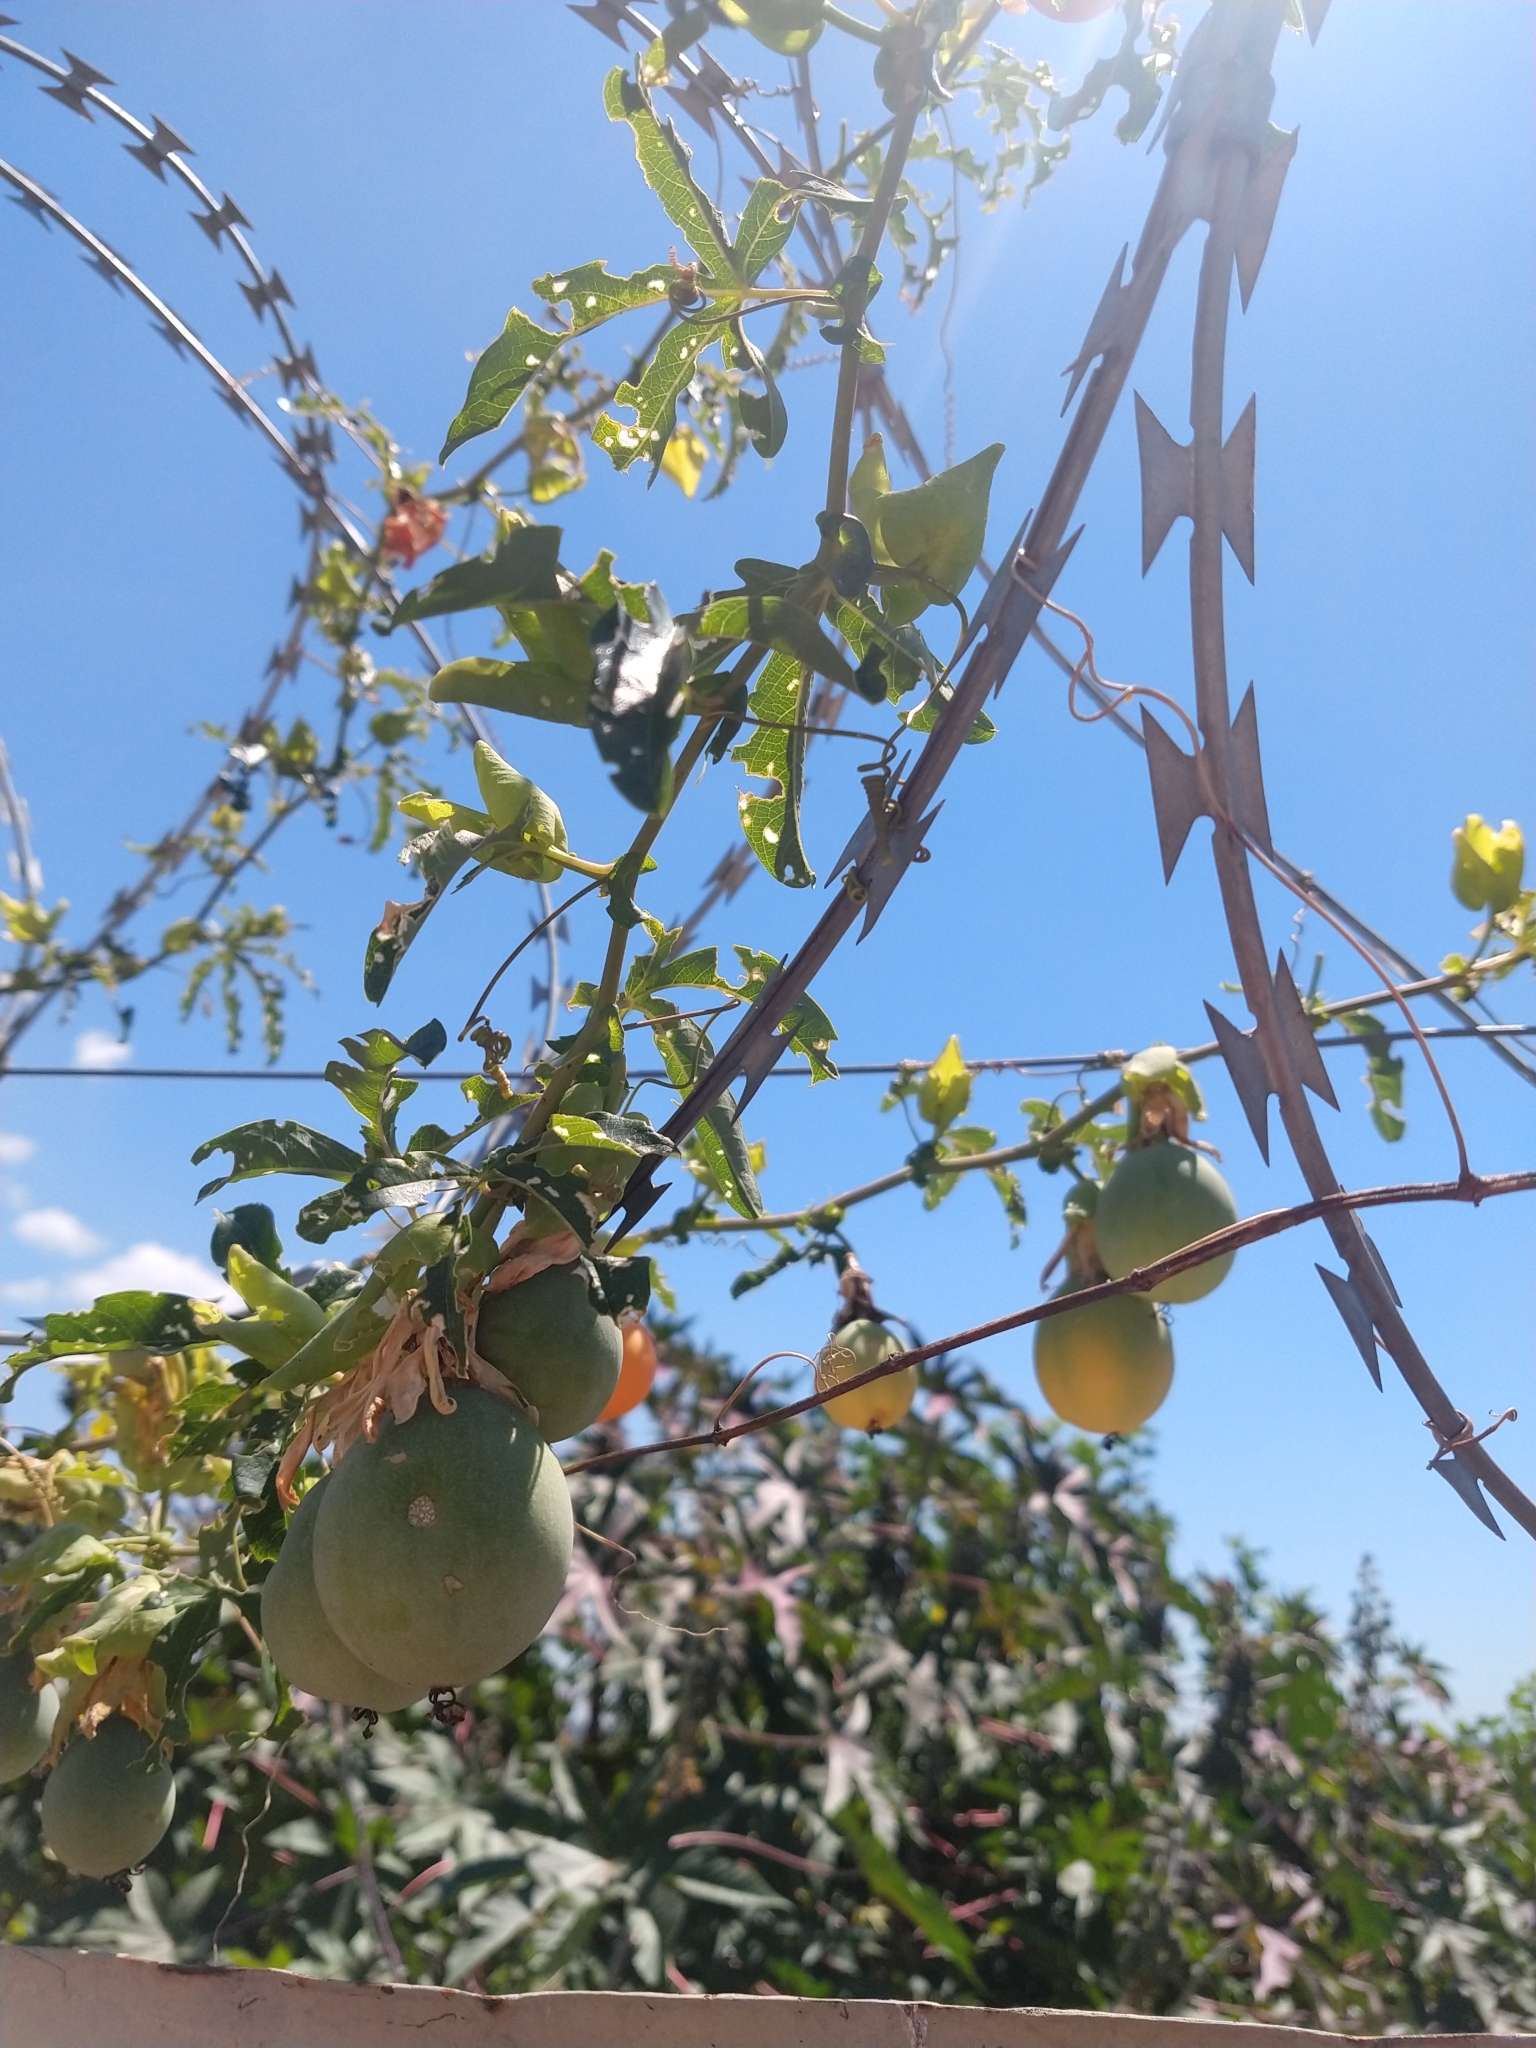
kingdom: Plantae
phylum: Tracheophyta
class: Magnoliopsida
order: Malpighiales
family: Passifloraceae
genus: Passiflora
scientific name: Passiflora caerulea
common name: Blue passionflower
